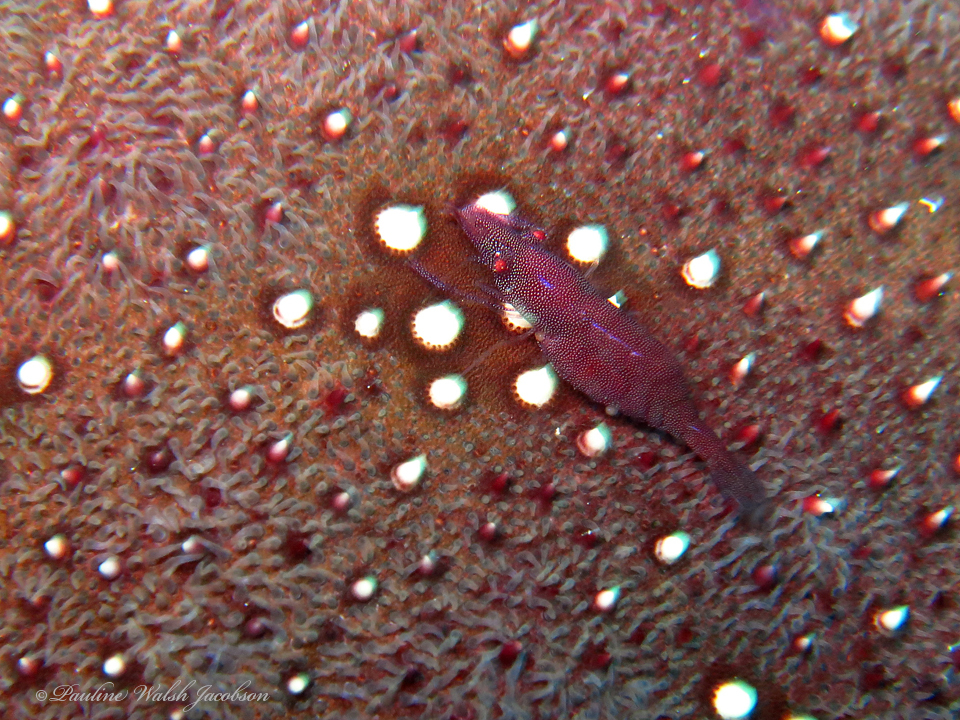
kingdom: Animalia
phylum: Arthropoda
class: Malacostraca
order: Decapoda
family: Palaemonidae
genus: Periclimenes
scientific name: Periclimenes soror
